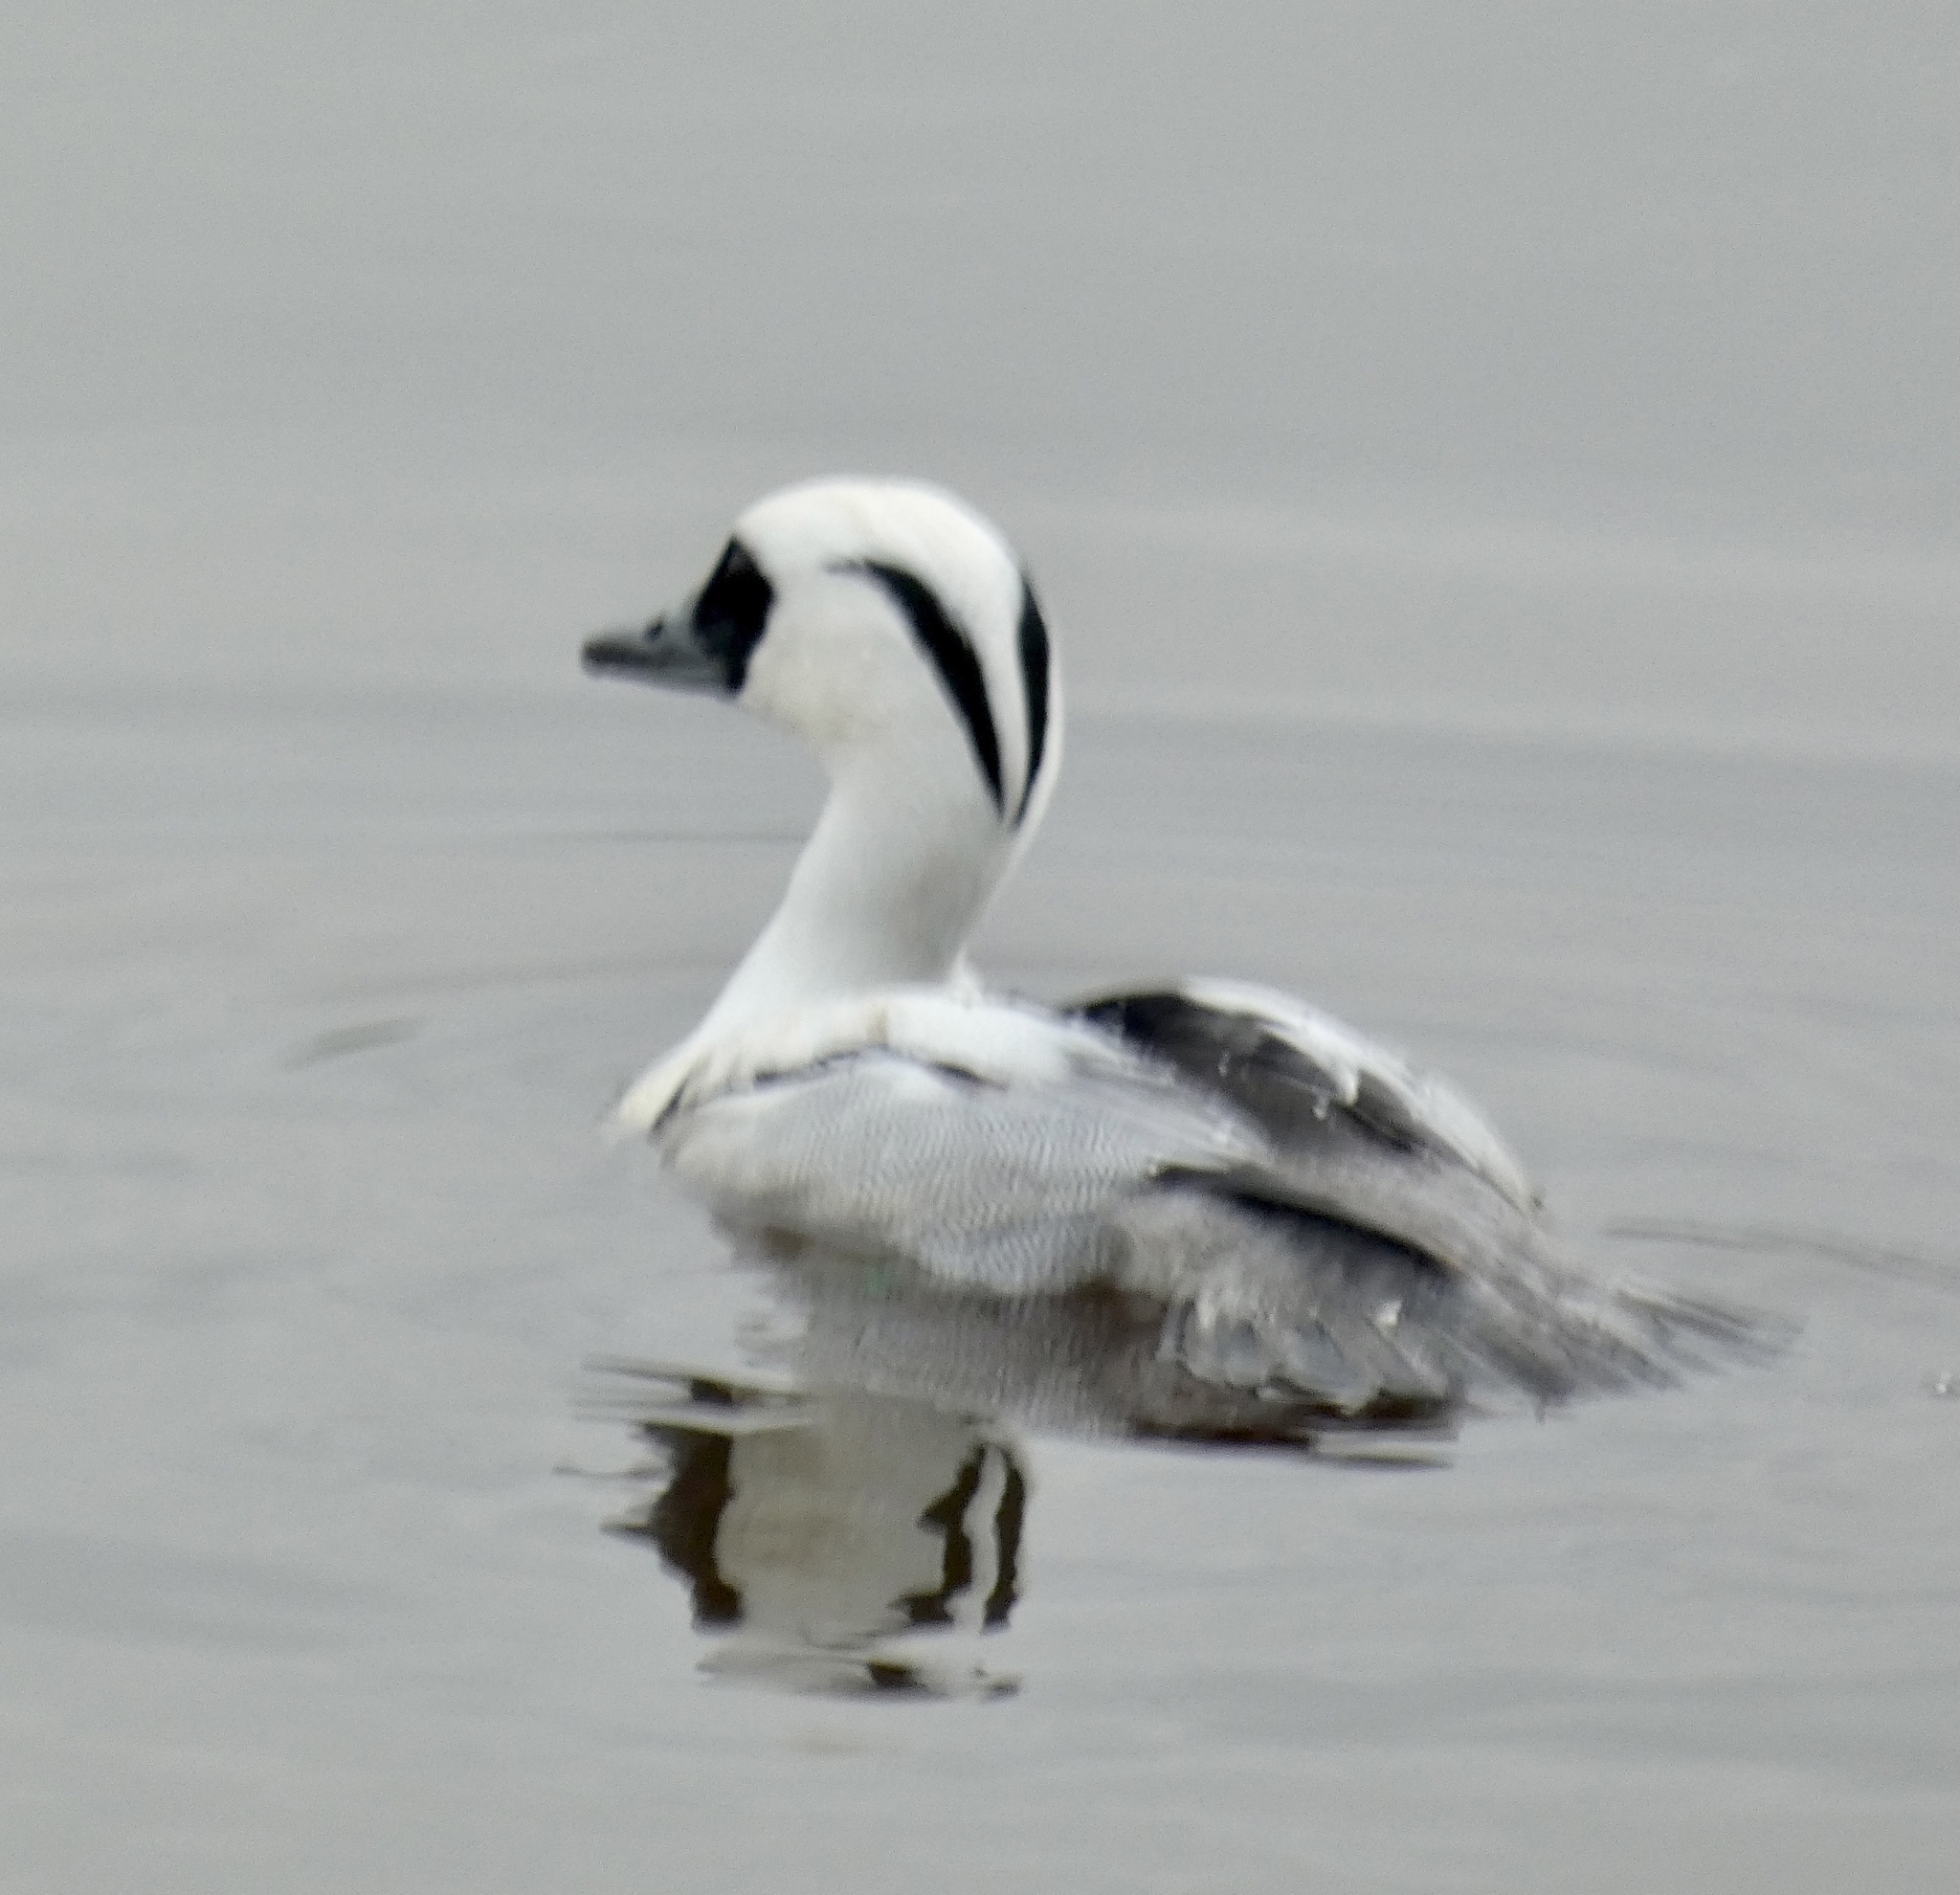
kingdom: Animalia
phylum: Chordata
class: Aves
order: Anseriformes
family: Anatidae
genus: Mergellus
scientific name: Mergellus albellus
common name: Smew
